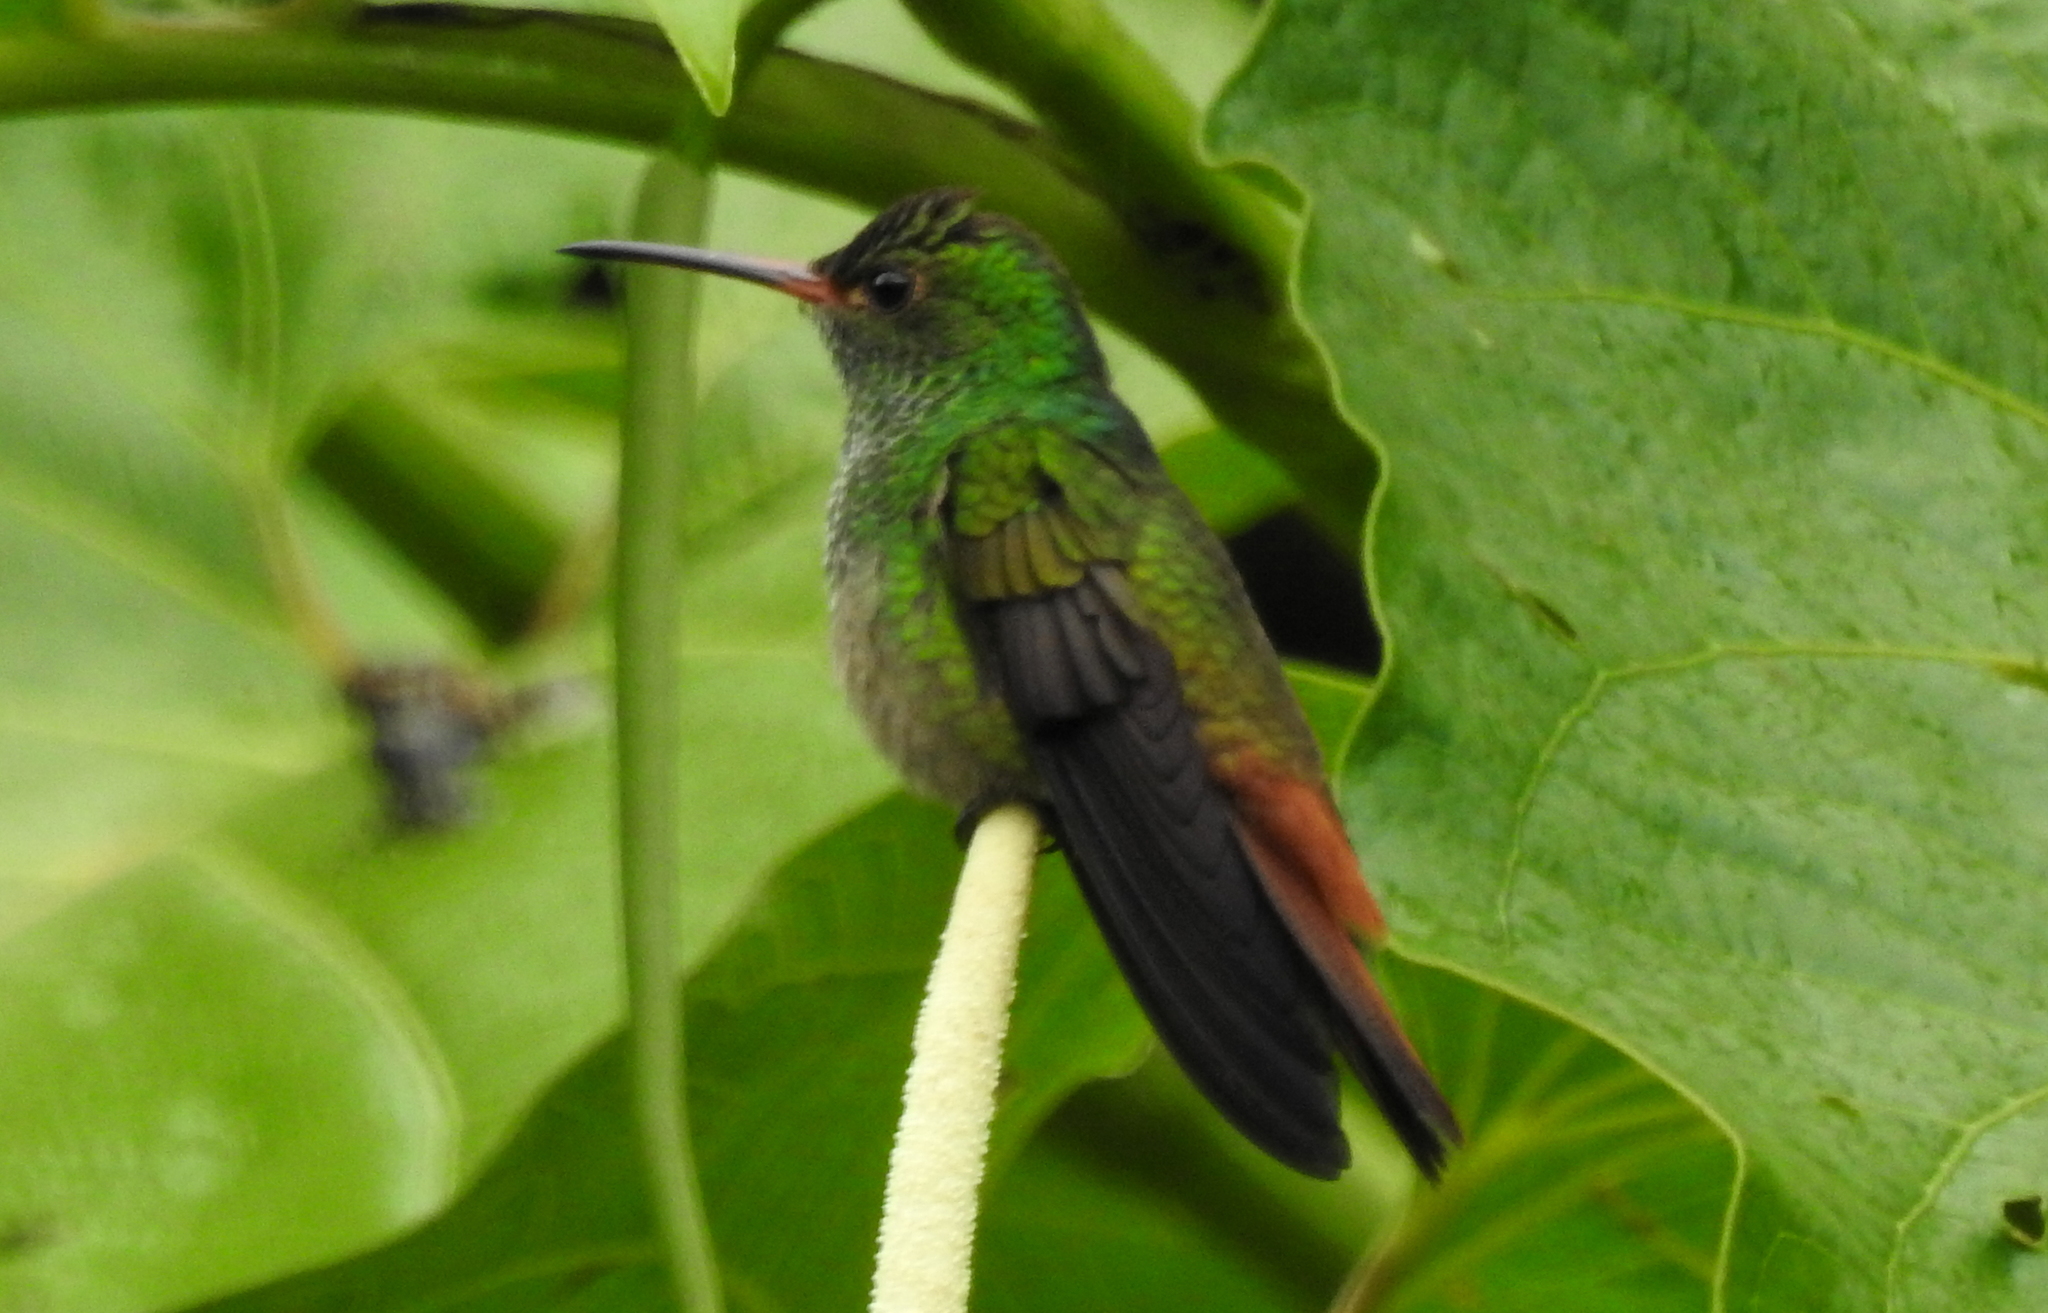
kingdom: Animalia
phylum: Chordata
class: Aves
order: Apodiformes
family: Trochilidae
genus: Amazilia
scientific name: Amazilia tzacatl
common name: Rufous-tailed hummingbird
